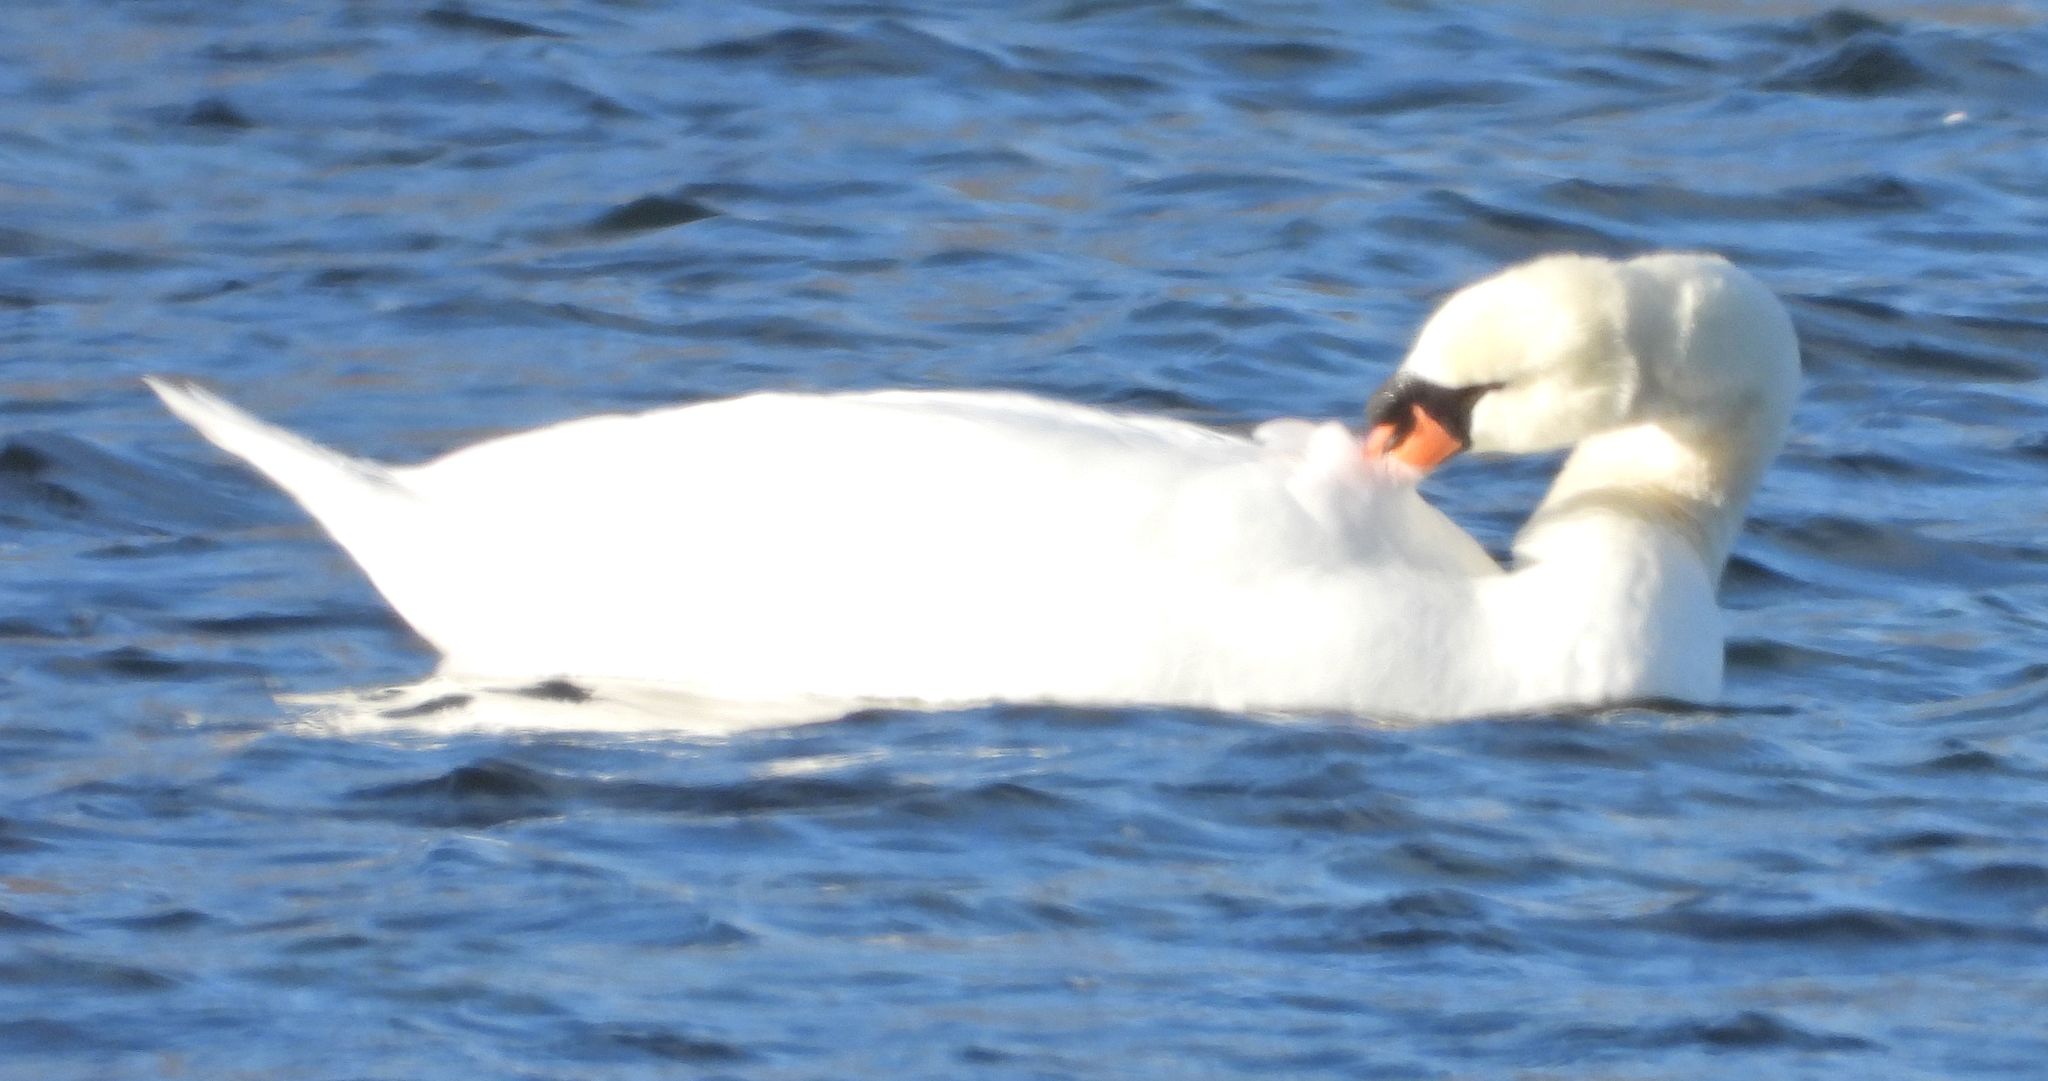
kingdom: Animalia
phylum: Chordata
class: Aves
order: Anseriformes
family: Anatidae
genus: Cygnus
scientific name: Cygnus olor
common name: Mute swan
